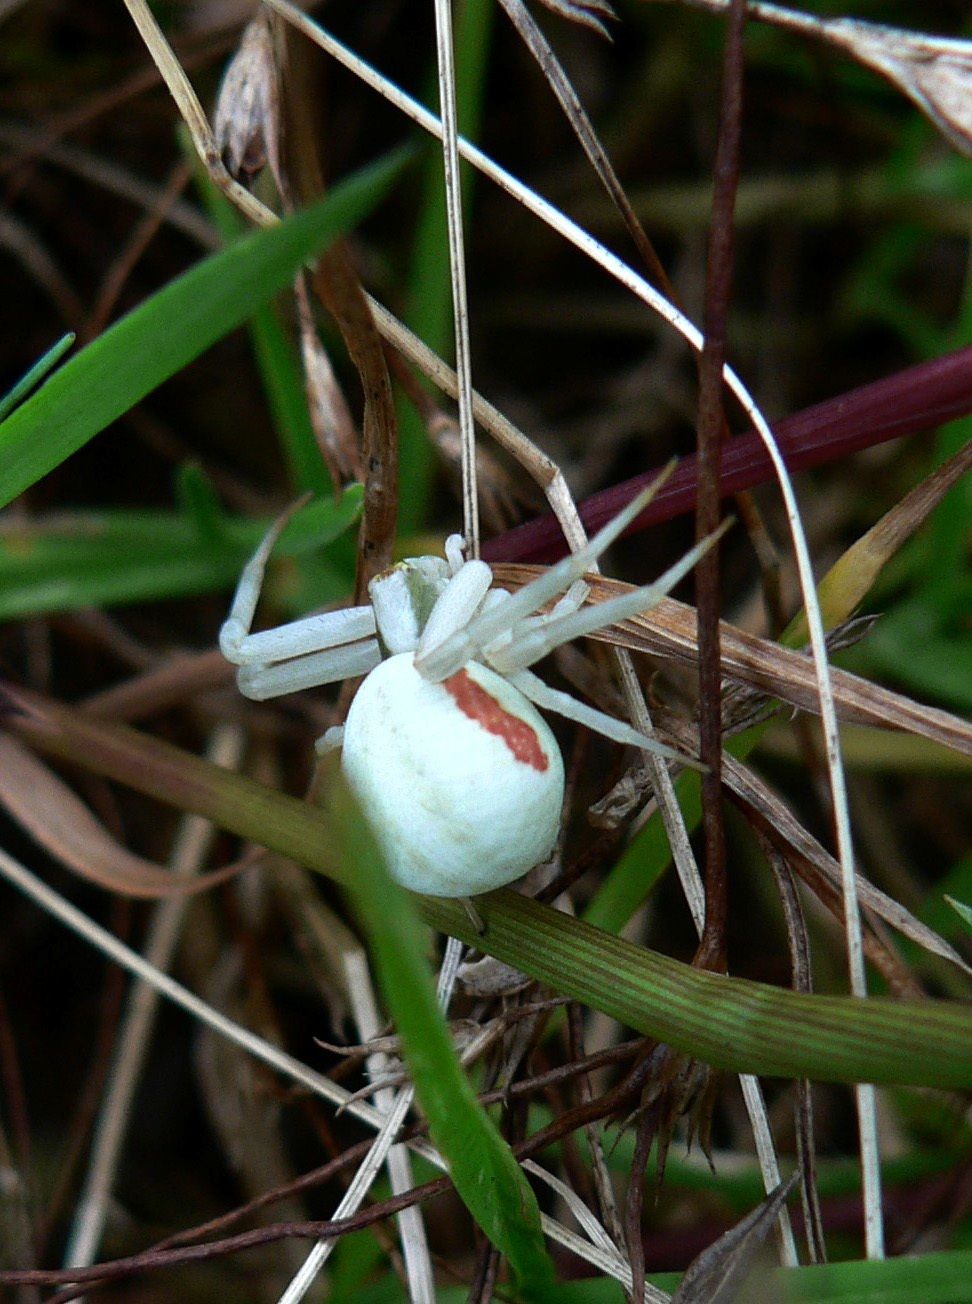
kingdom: Animalia
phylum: Arthropoda
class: Arachnida
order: Araneae
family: Thomisidae
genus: Misumena
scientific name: Misumena vatia
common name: Goldenrod crab spider
